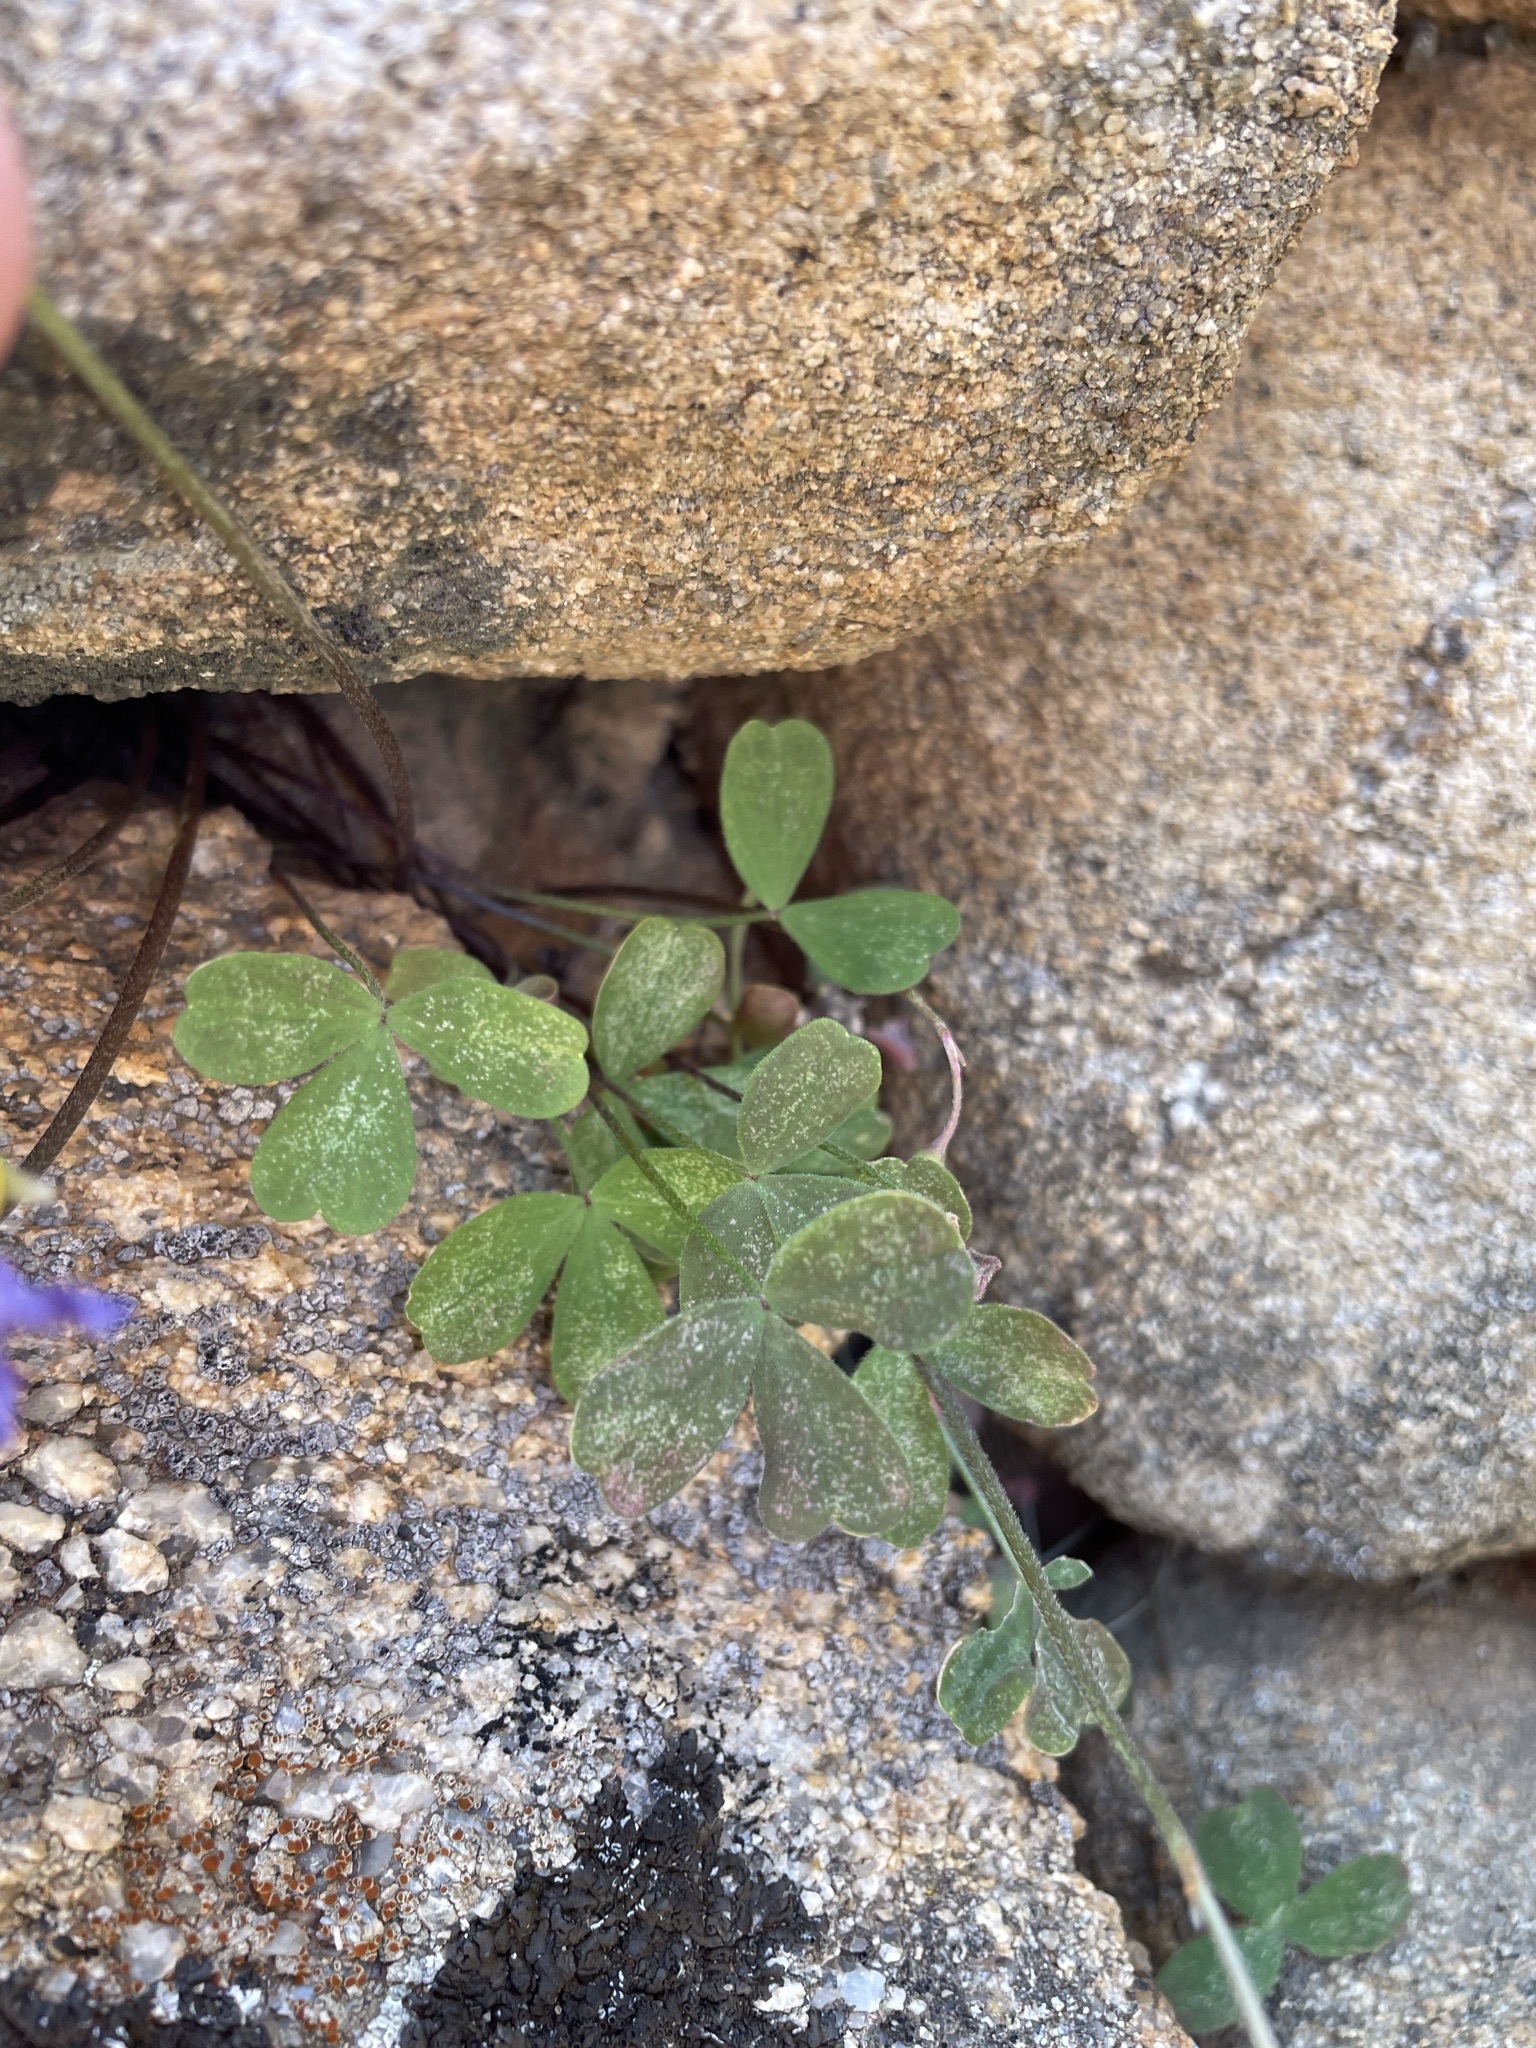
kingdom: Plantae
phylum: Tracheophyta
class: Magnoliopsida
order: Oxalidales
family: Oxalidaceae
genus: Oxalis
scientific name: Oxalis obtusa
